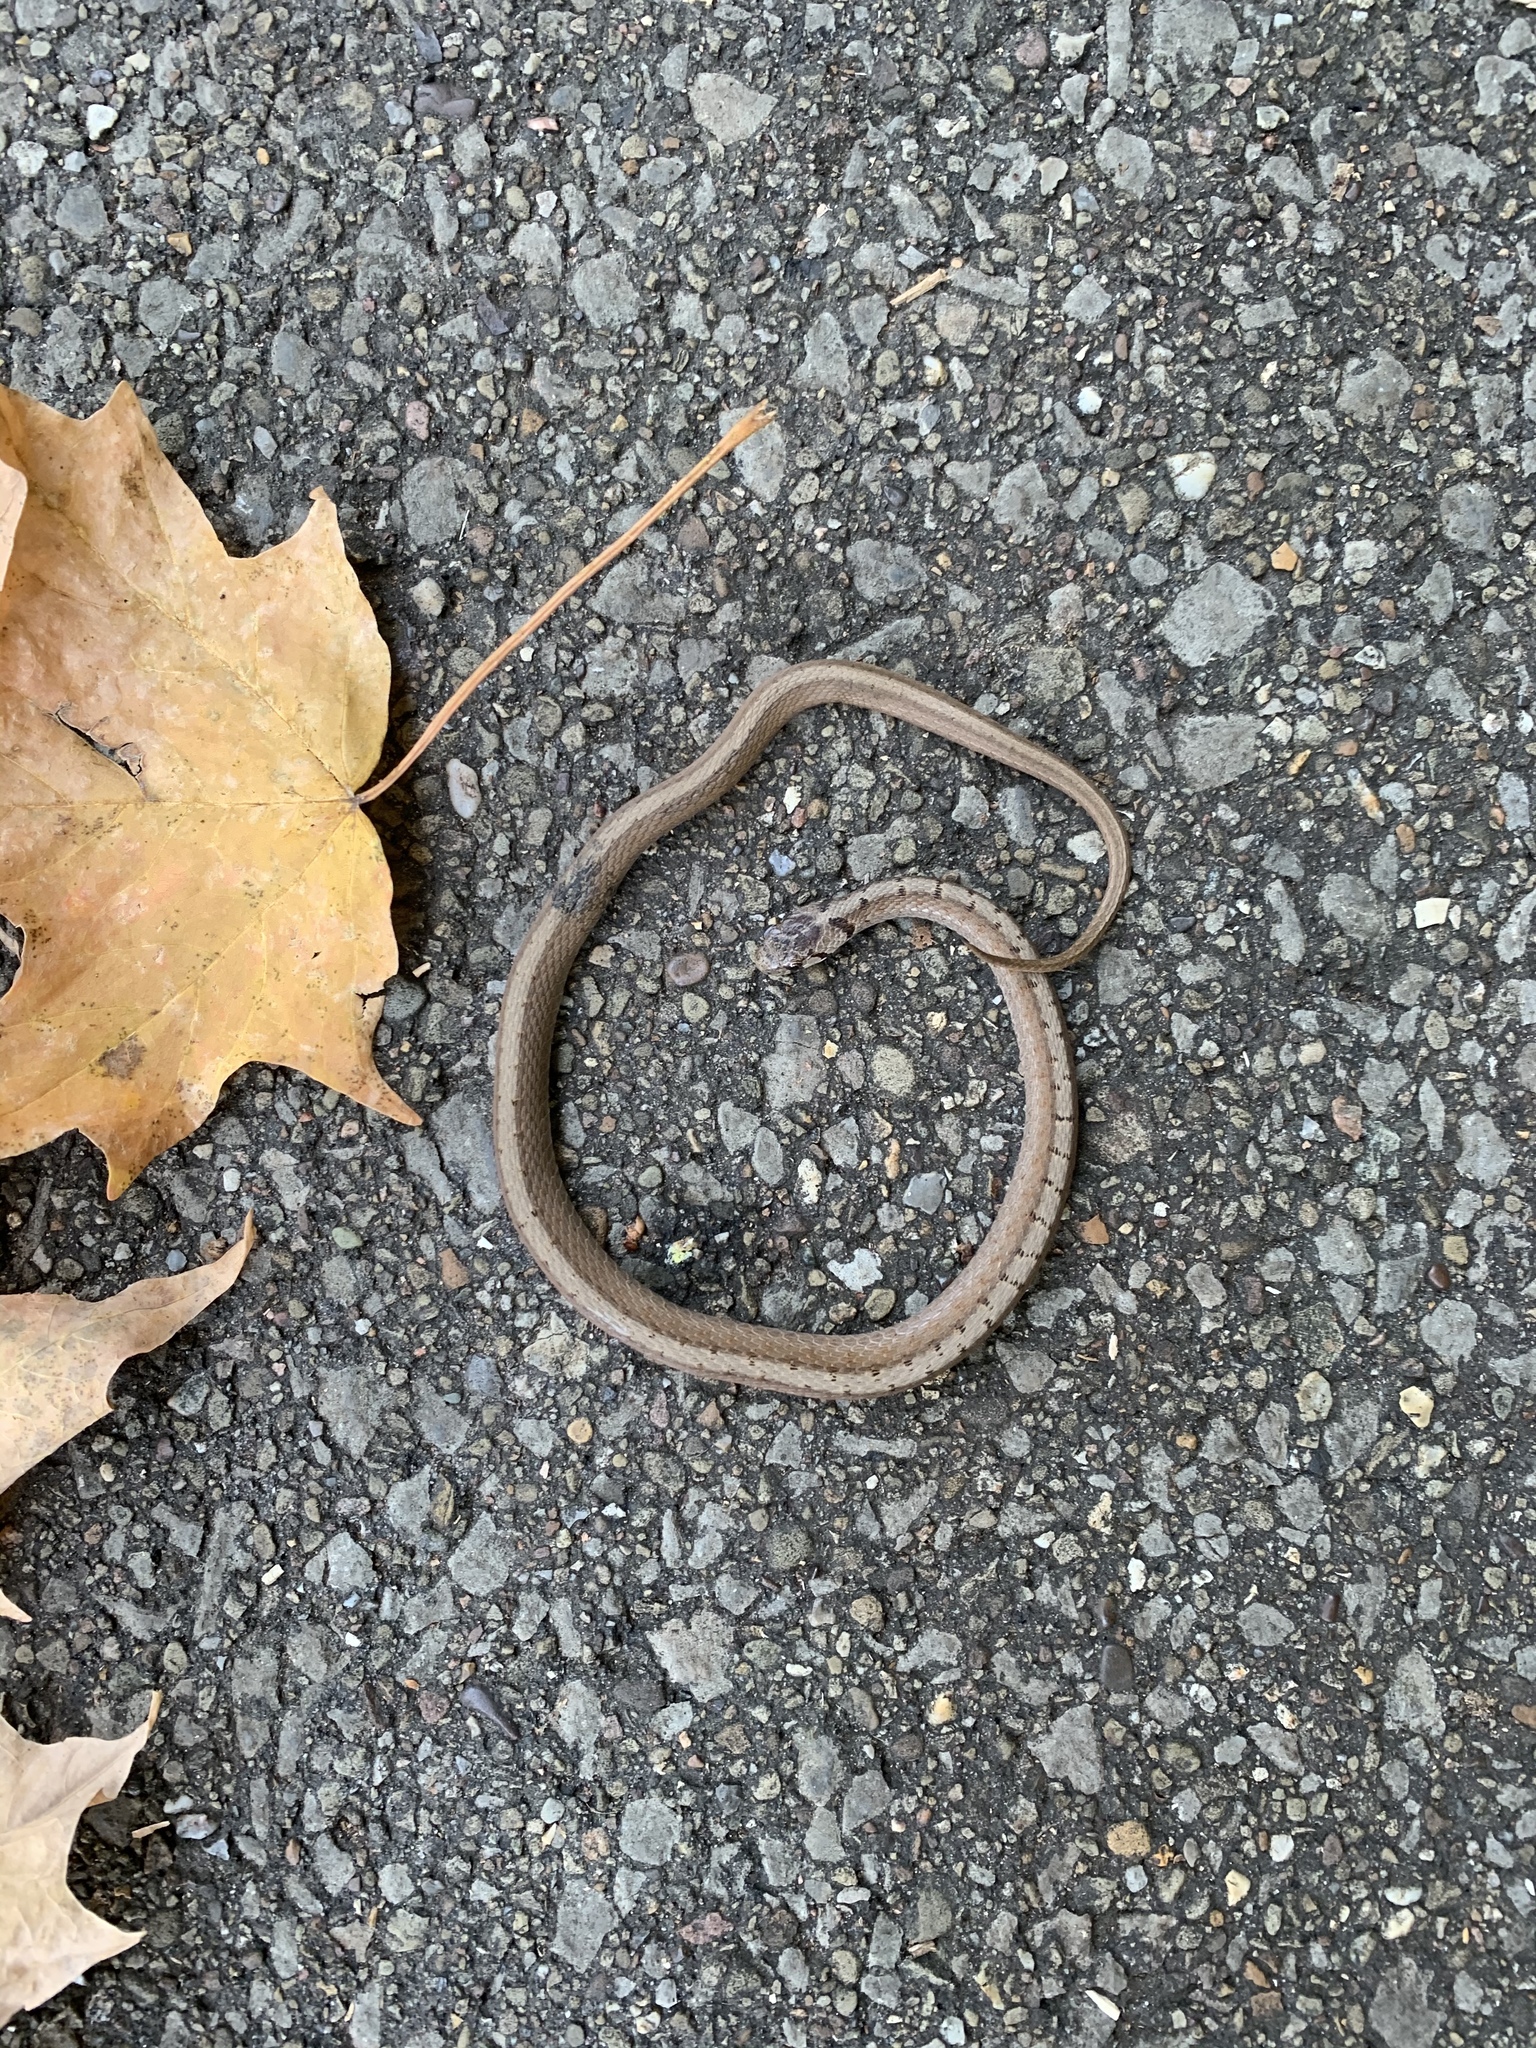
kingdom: Animalia
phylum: Chordata
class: Squamata
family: Colubridae
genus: Storeria
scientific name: Storeria dekayi
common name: (dekay’s) brown snake
